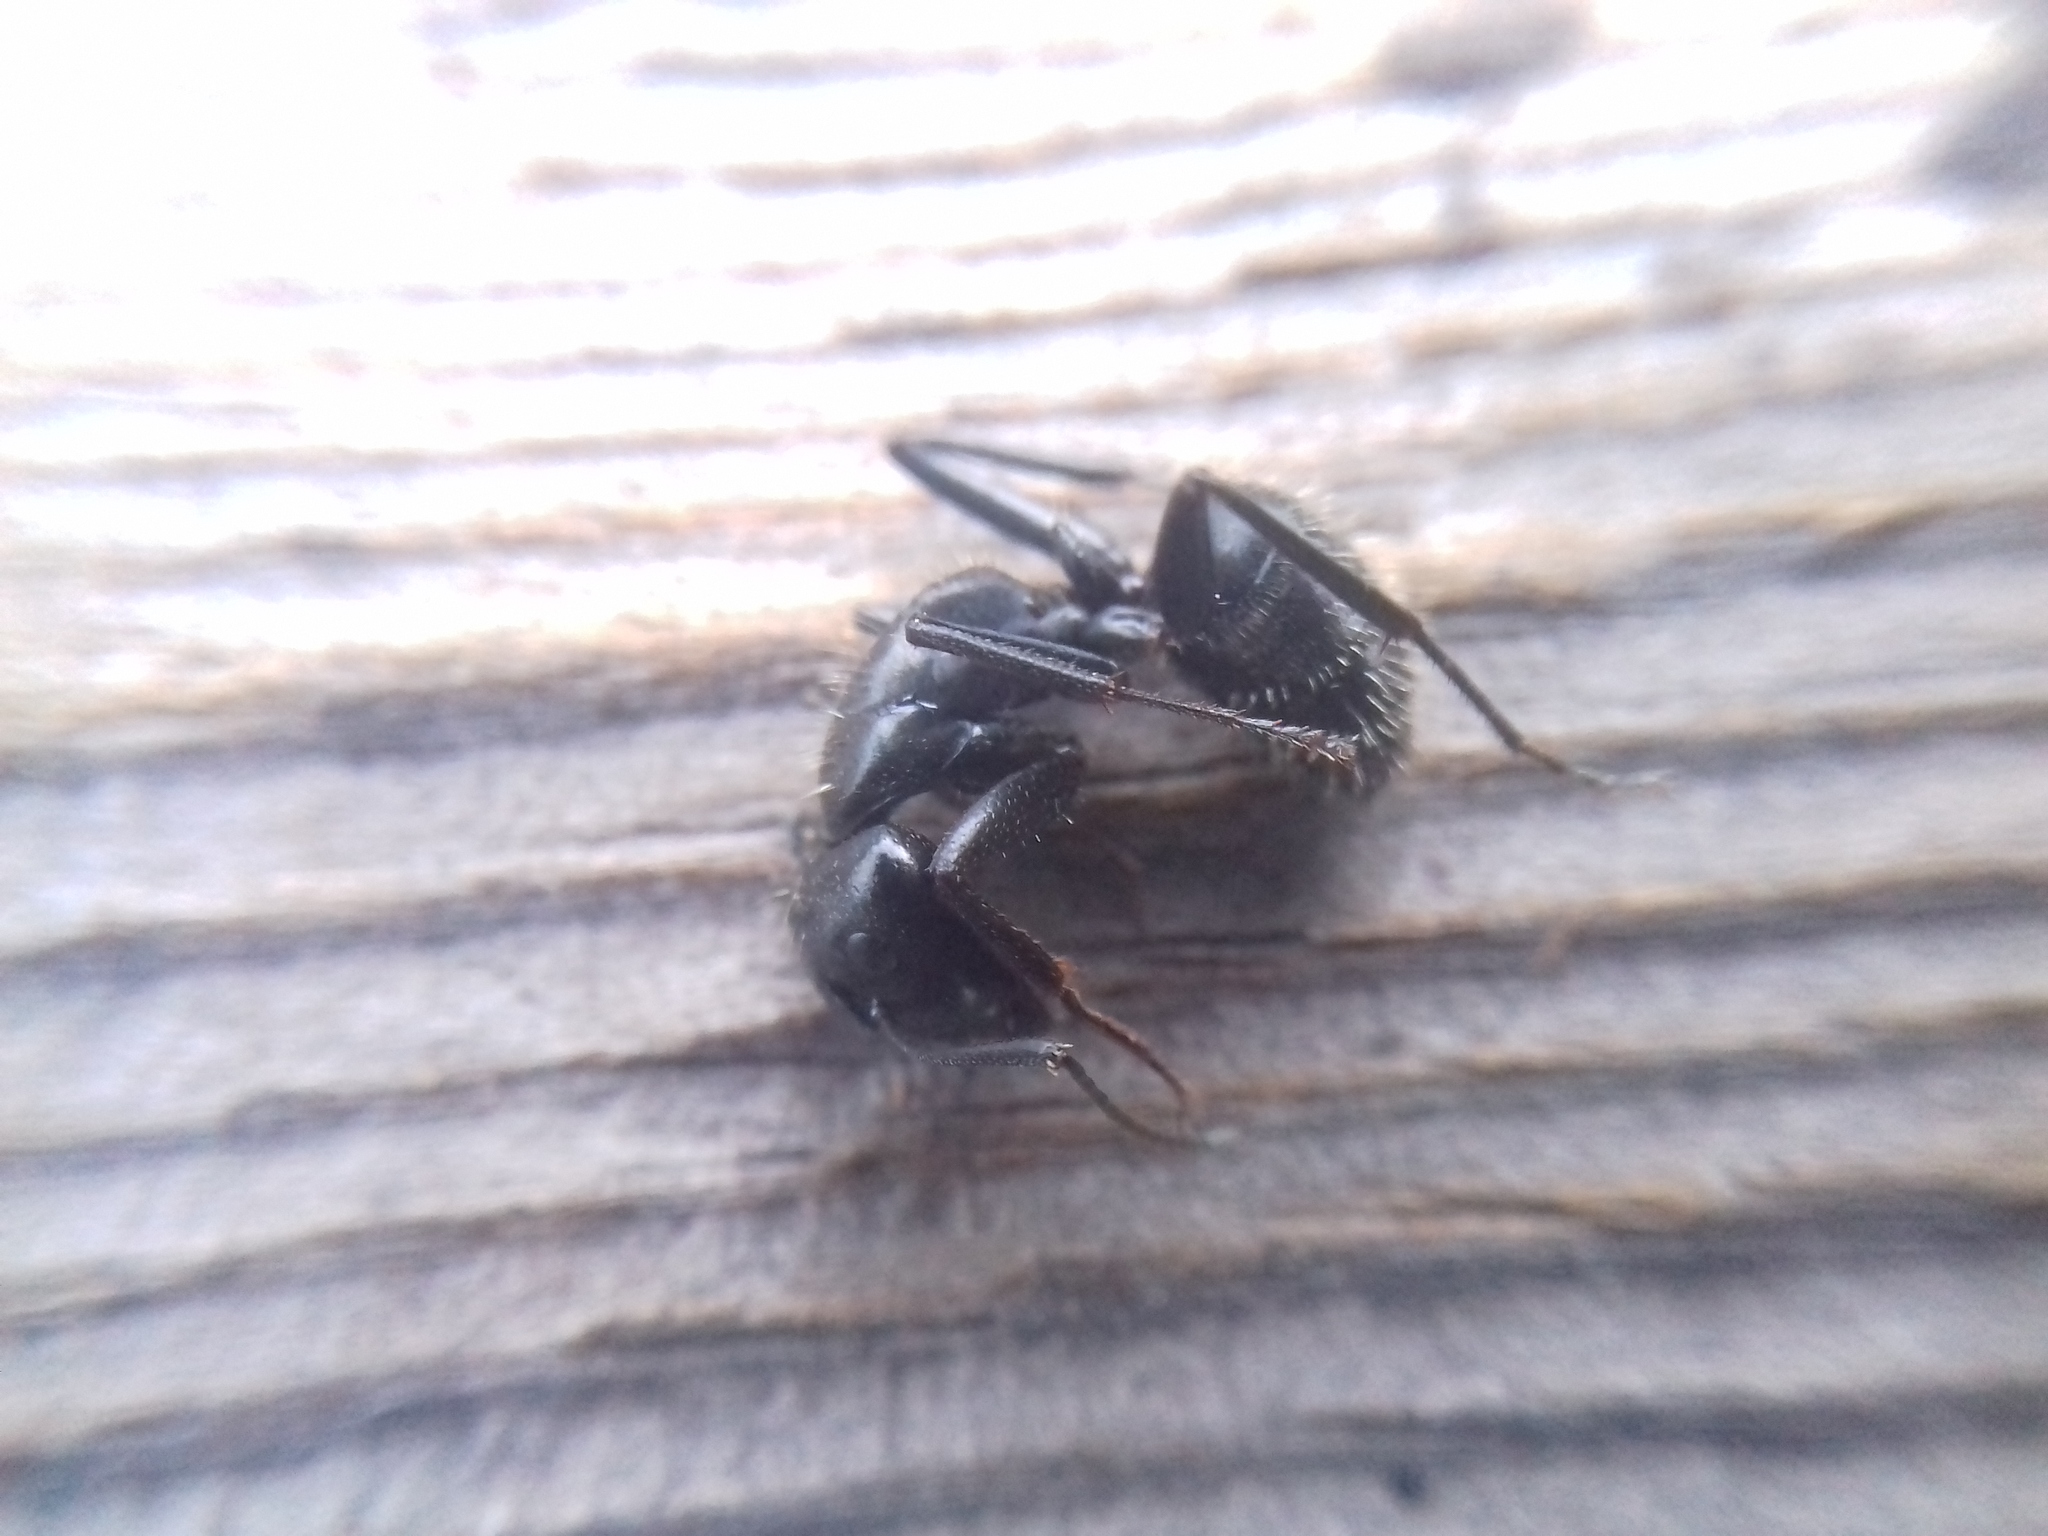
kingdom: Animalia
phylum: Arthropoda
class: Insecta
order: Hymenoptera
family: Formicidae
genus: Camponotus
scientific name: Camponotus vagus
